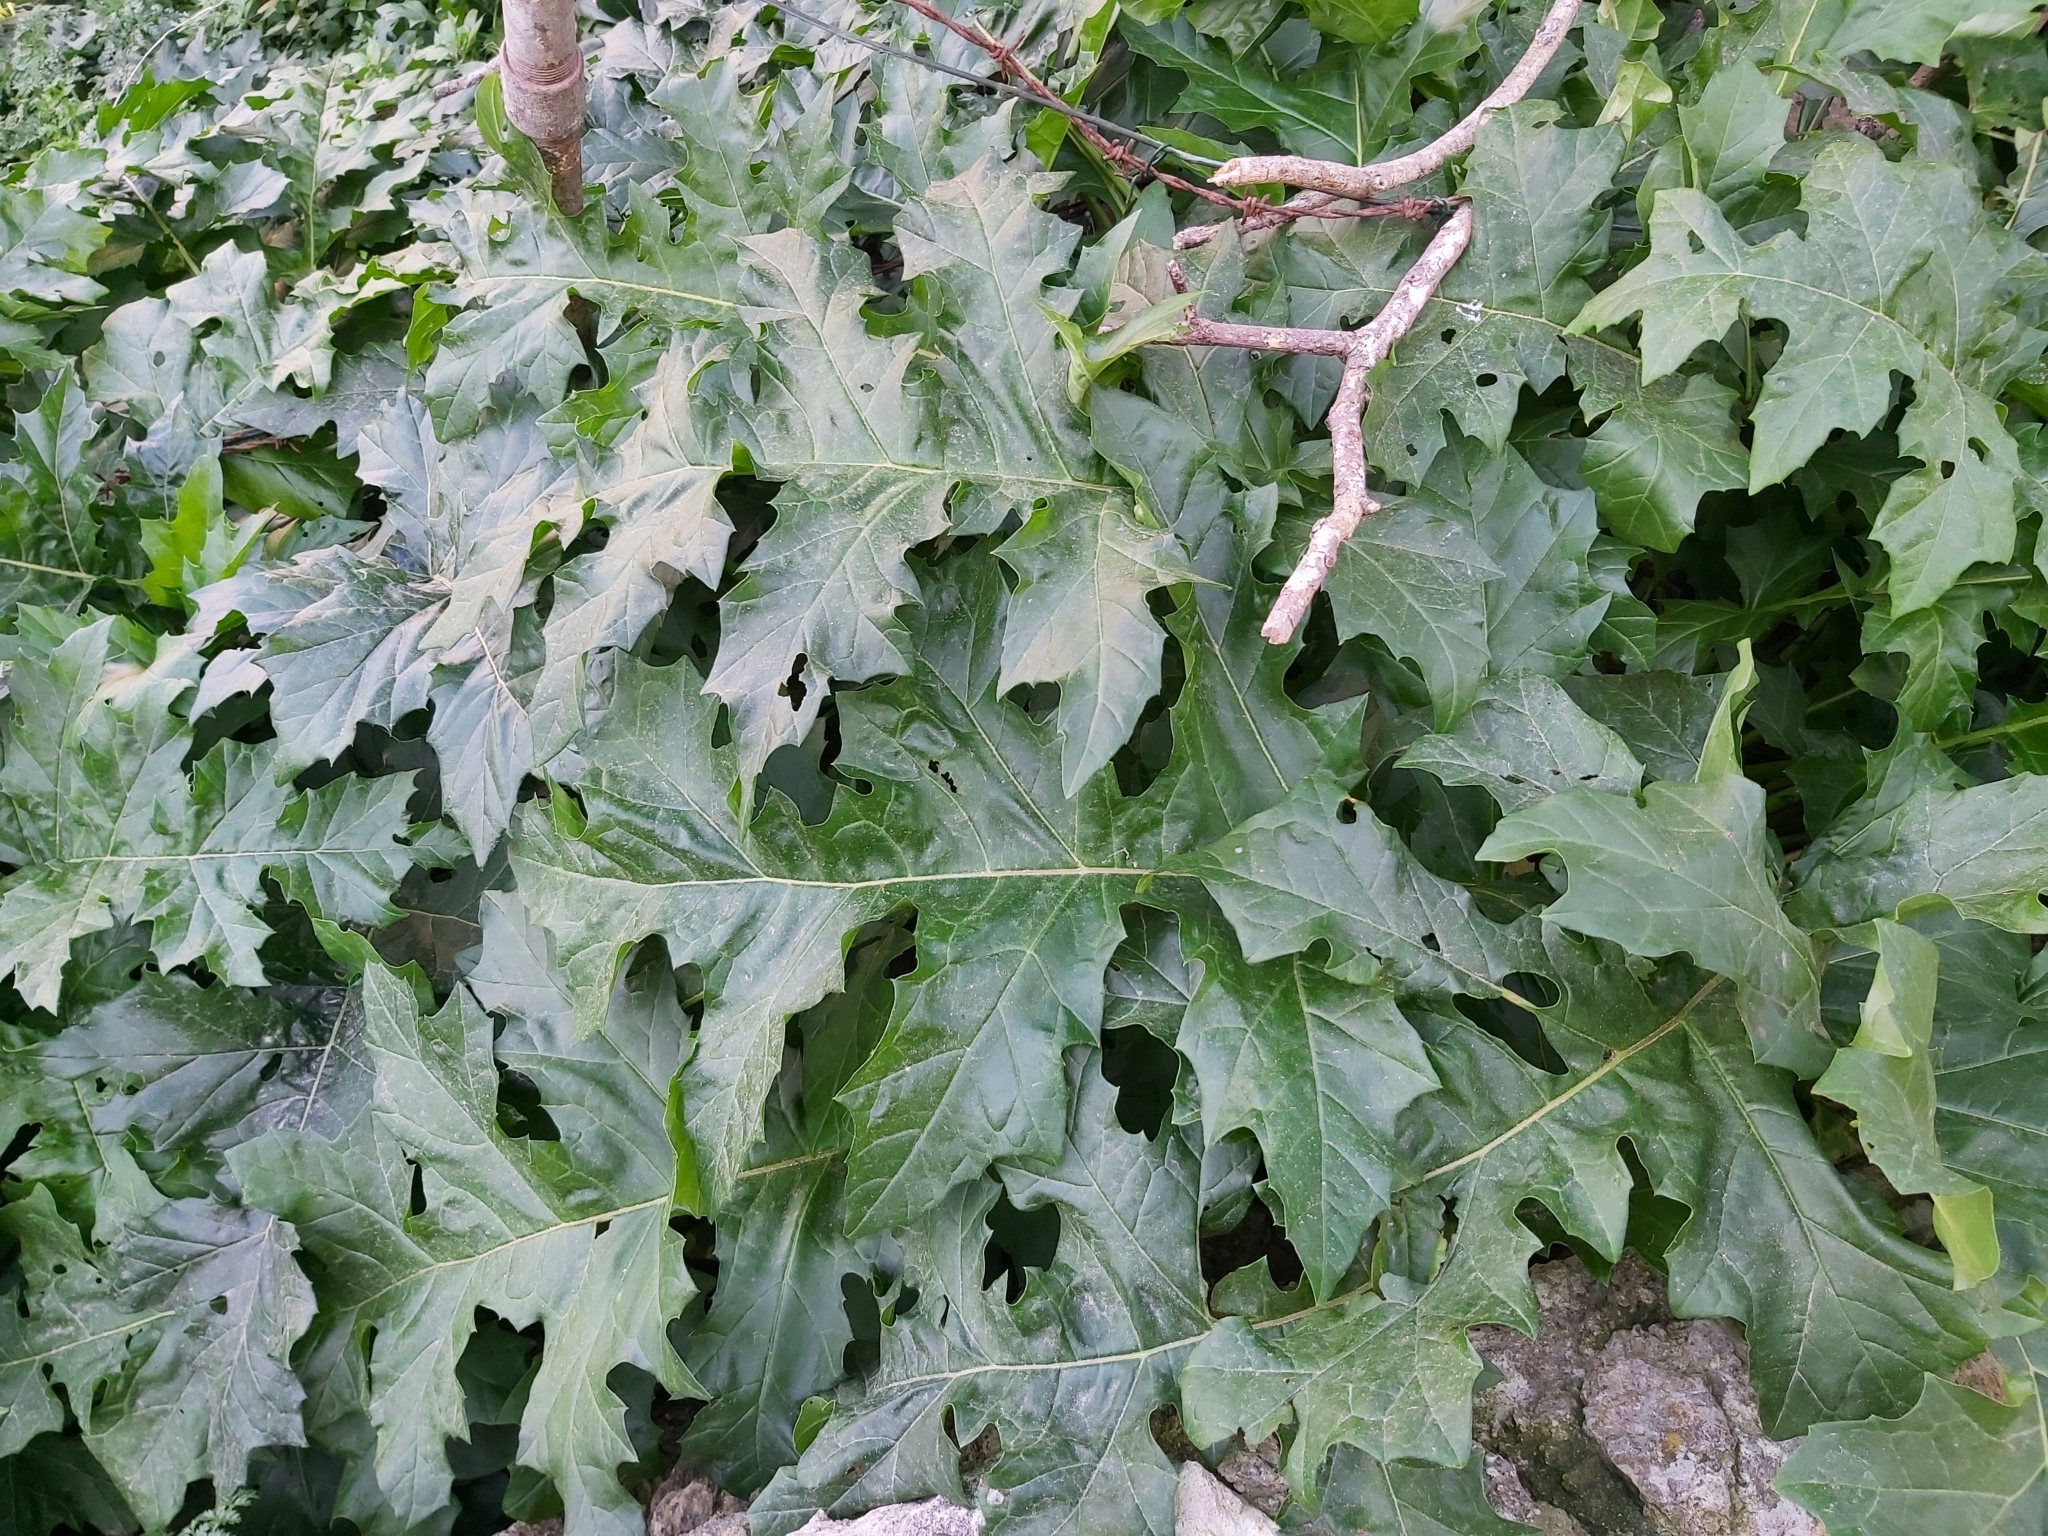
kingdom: Plantae
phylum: Tracheophyta
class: Magnoliopsida
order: Lamiales
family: Acanthaceae
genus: Acanthus
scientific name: Acanthus mollis
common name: Bear's-breech
